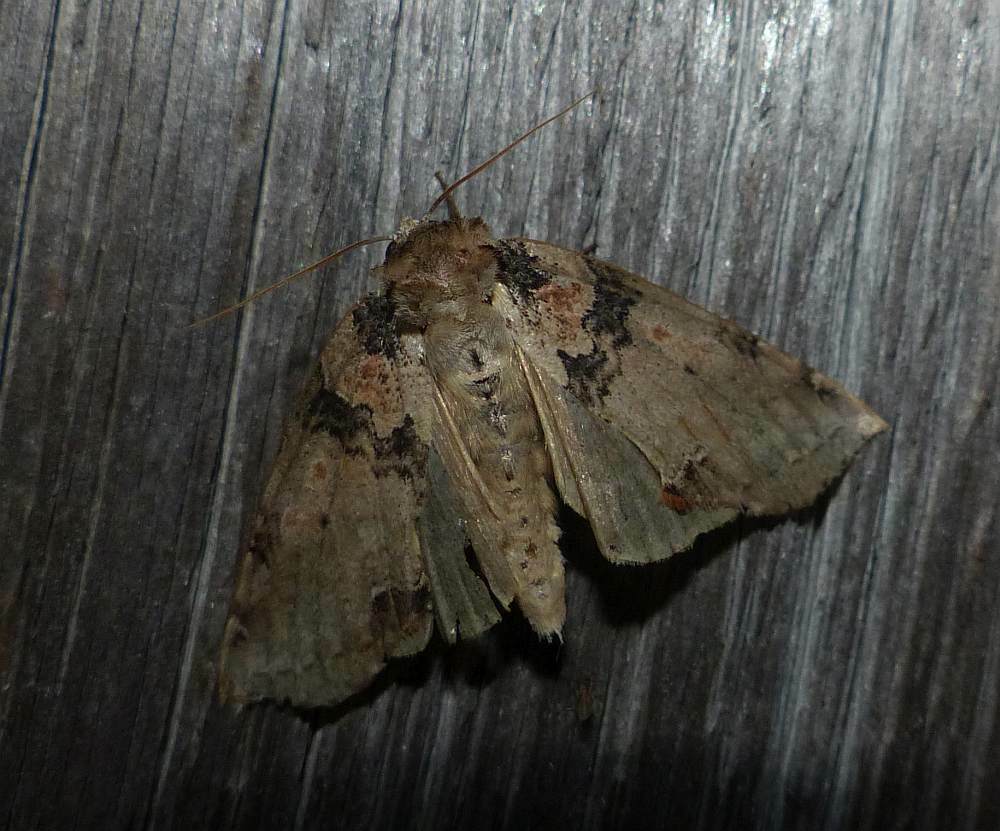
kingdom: Animalia
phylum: Arthropoda
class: Insecta
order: Lepidoptera
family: Drepanidae
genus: Pseudothyatira
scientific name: Pseudothyatira cymatophoroides
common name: Tufted thyatirid moth
